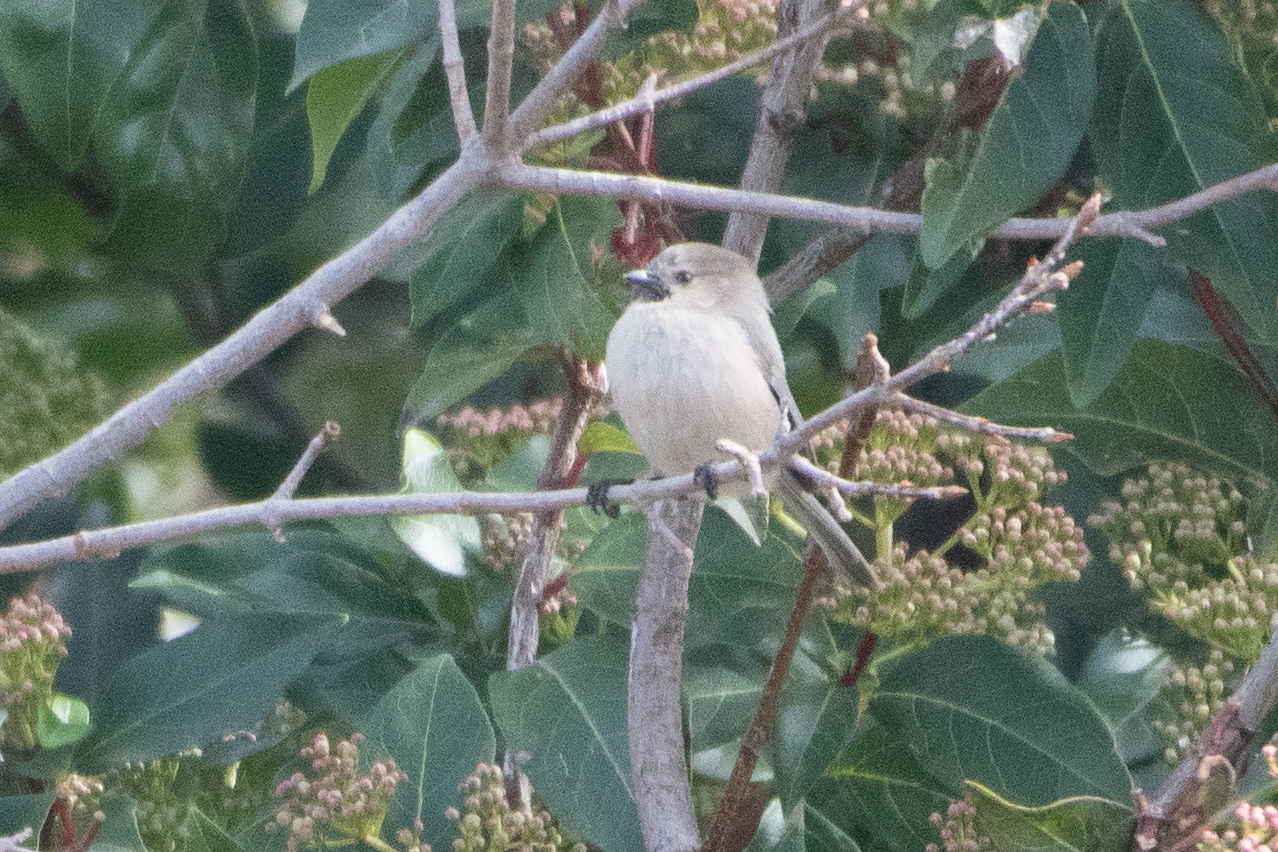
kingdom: Animalia
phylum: Chordata
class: Aves
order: Passeriformes
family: Aegithalidae
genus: Psaltriparus
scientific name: Psaltriparus minimus
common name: American bushtit
